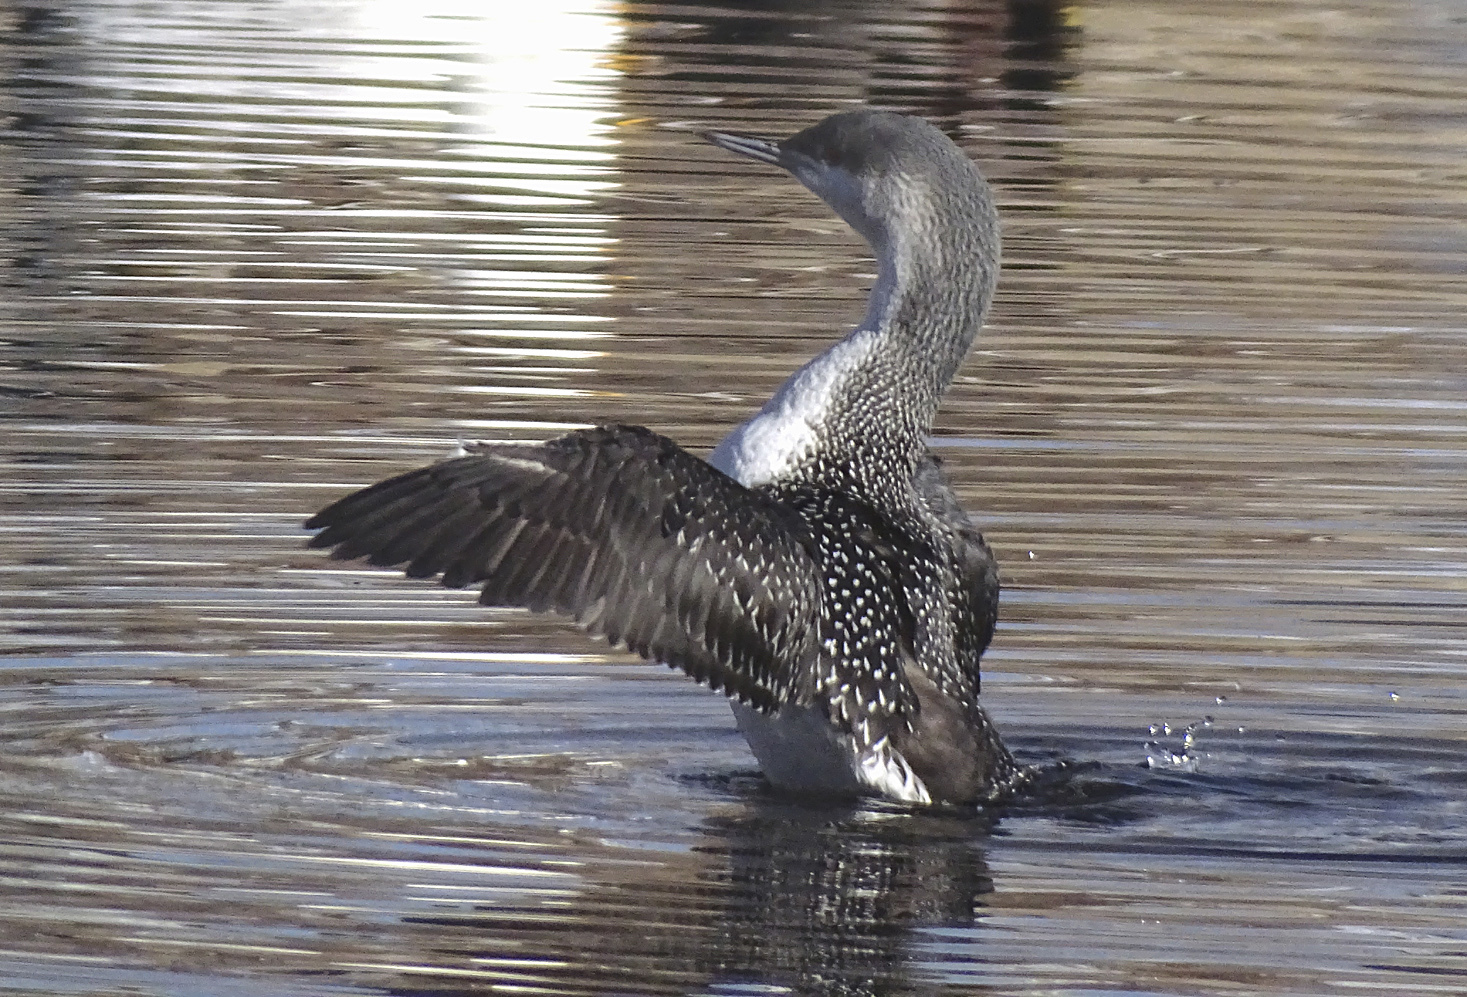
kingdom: Animalia
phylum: Chordata
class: Aves
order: Gaviiformes
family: Gaviidae
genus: Gavia
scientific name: Gavia stellata
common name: Red-throated loon
